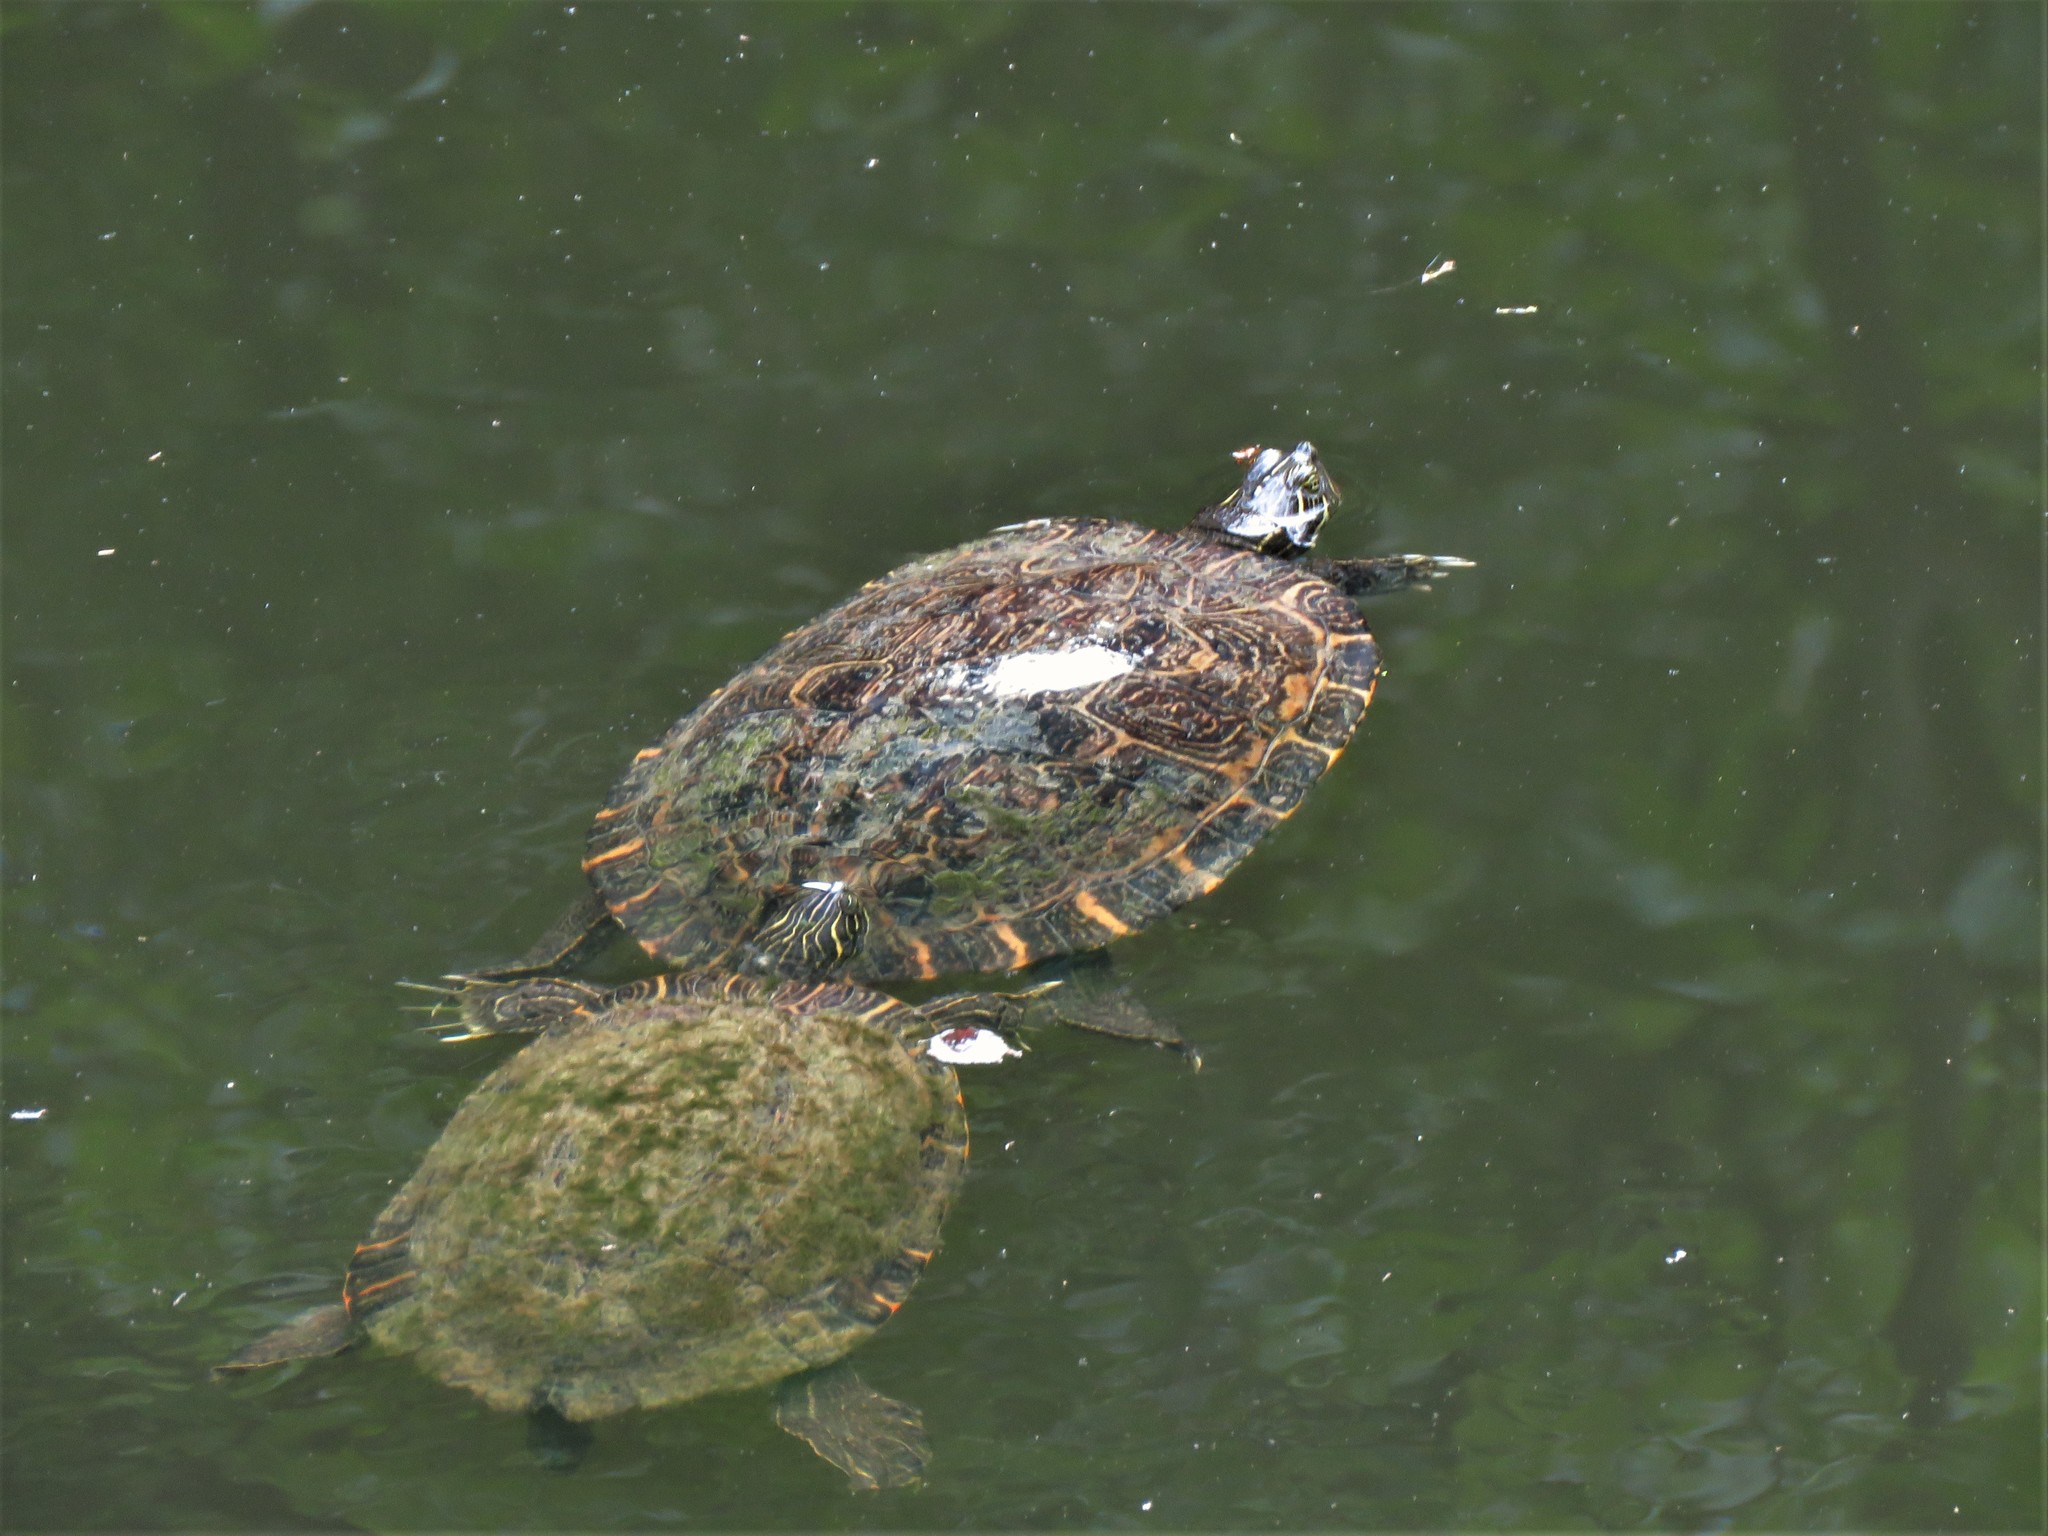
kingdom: Animalia
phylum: Chordata
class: Testudines
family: Emydidae
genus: Pseudemys
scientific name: Pseudemys concinna
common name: Eastern river cooter
